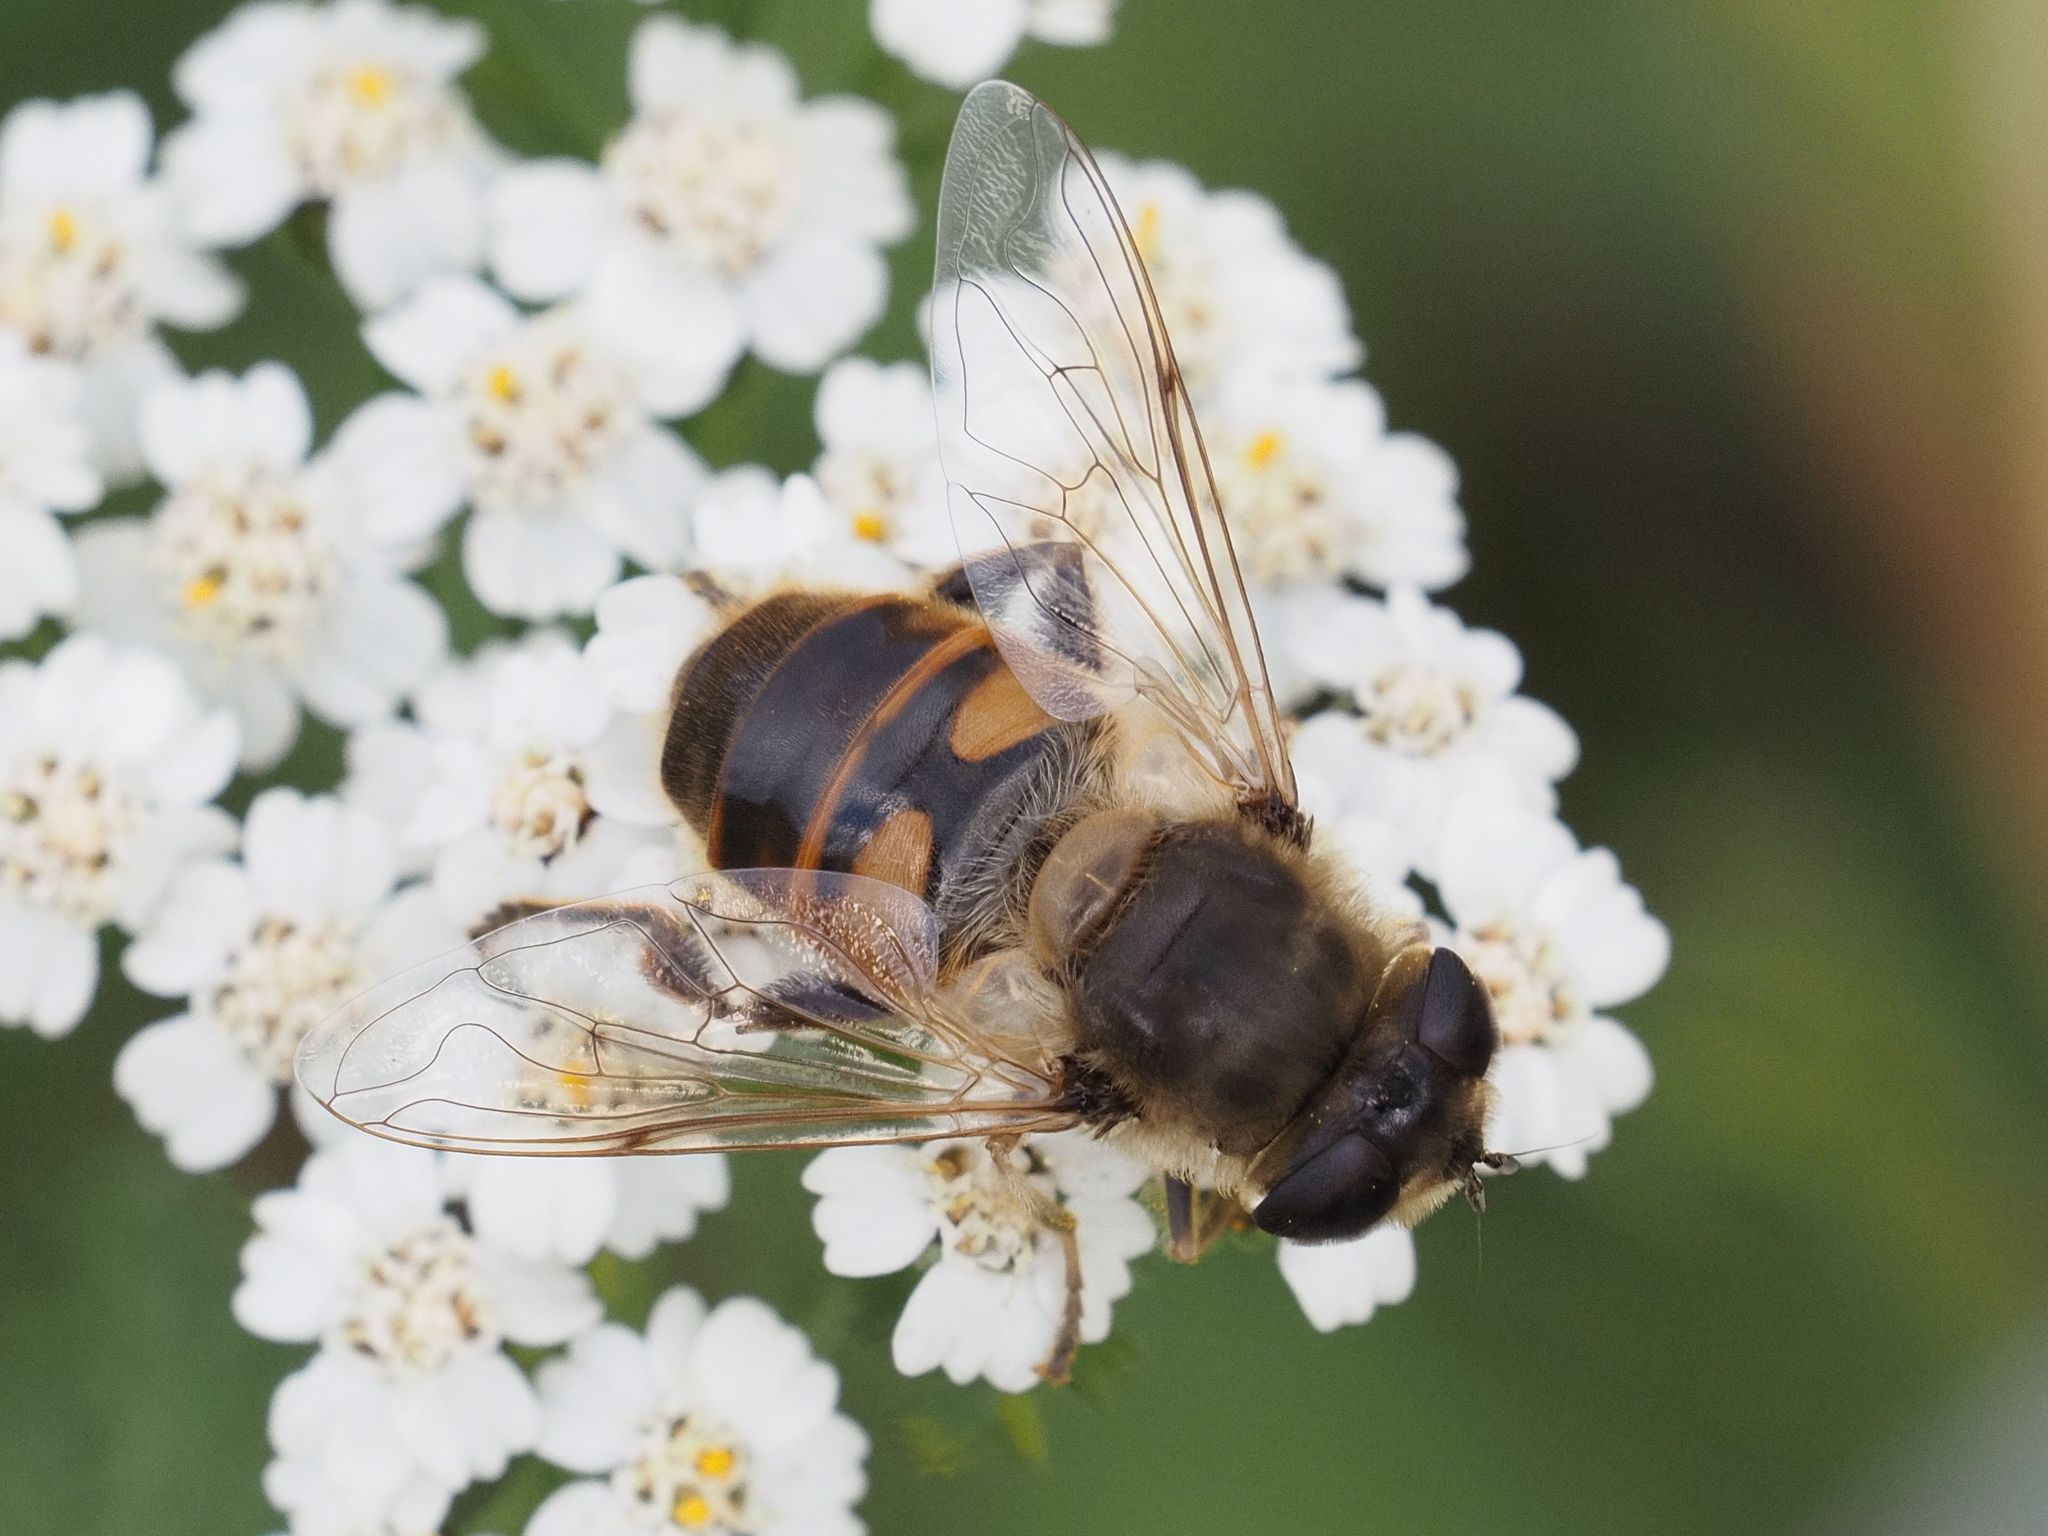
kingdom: Animalia
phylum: Arthropoda
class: Insecta
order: Diptera
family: Syrphidae
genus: Eristalis
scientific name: Eristalis tenax
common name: Drone fly
